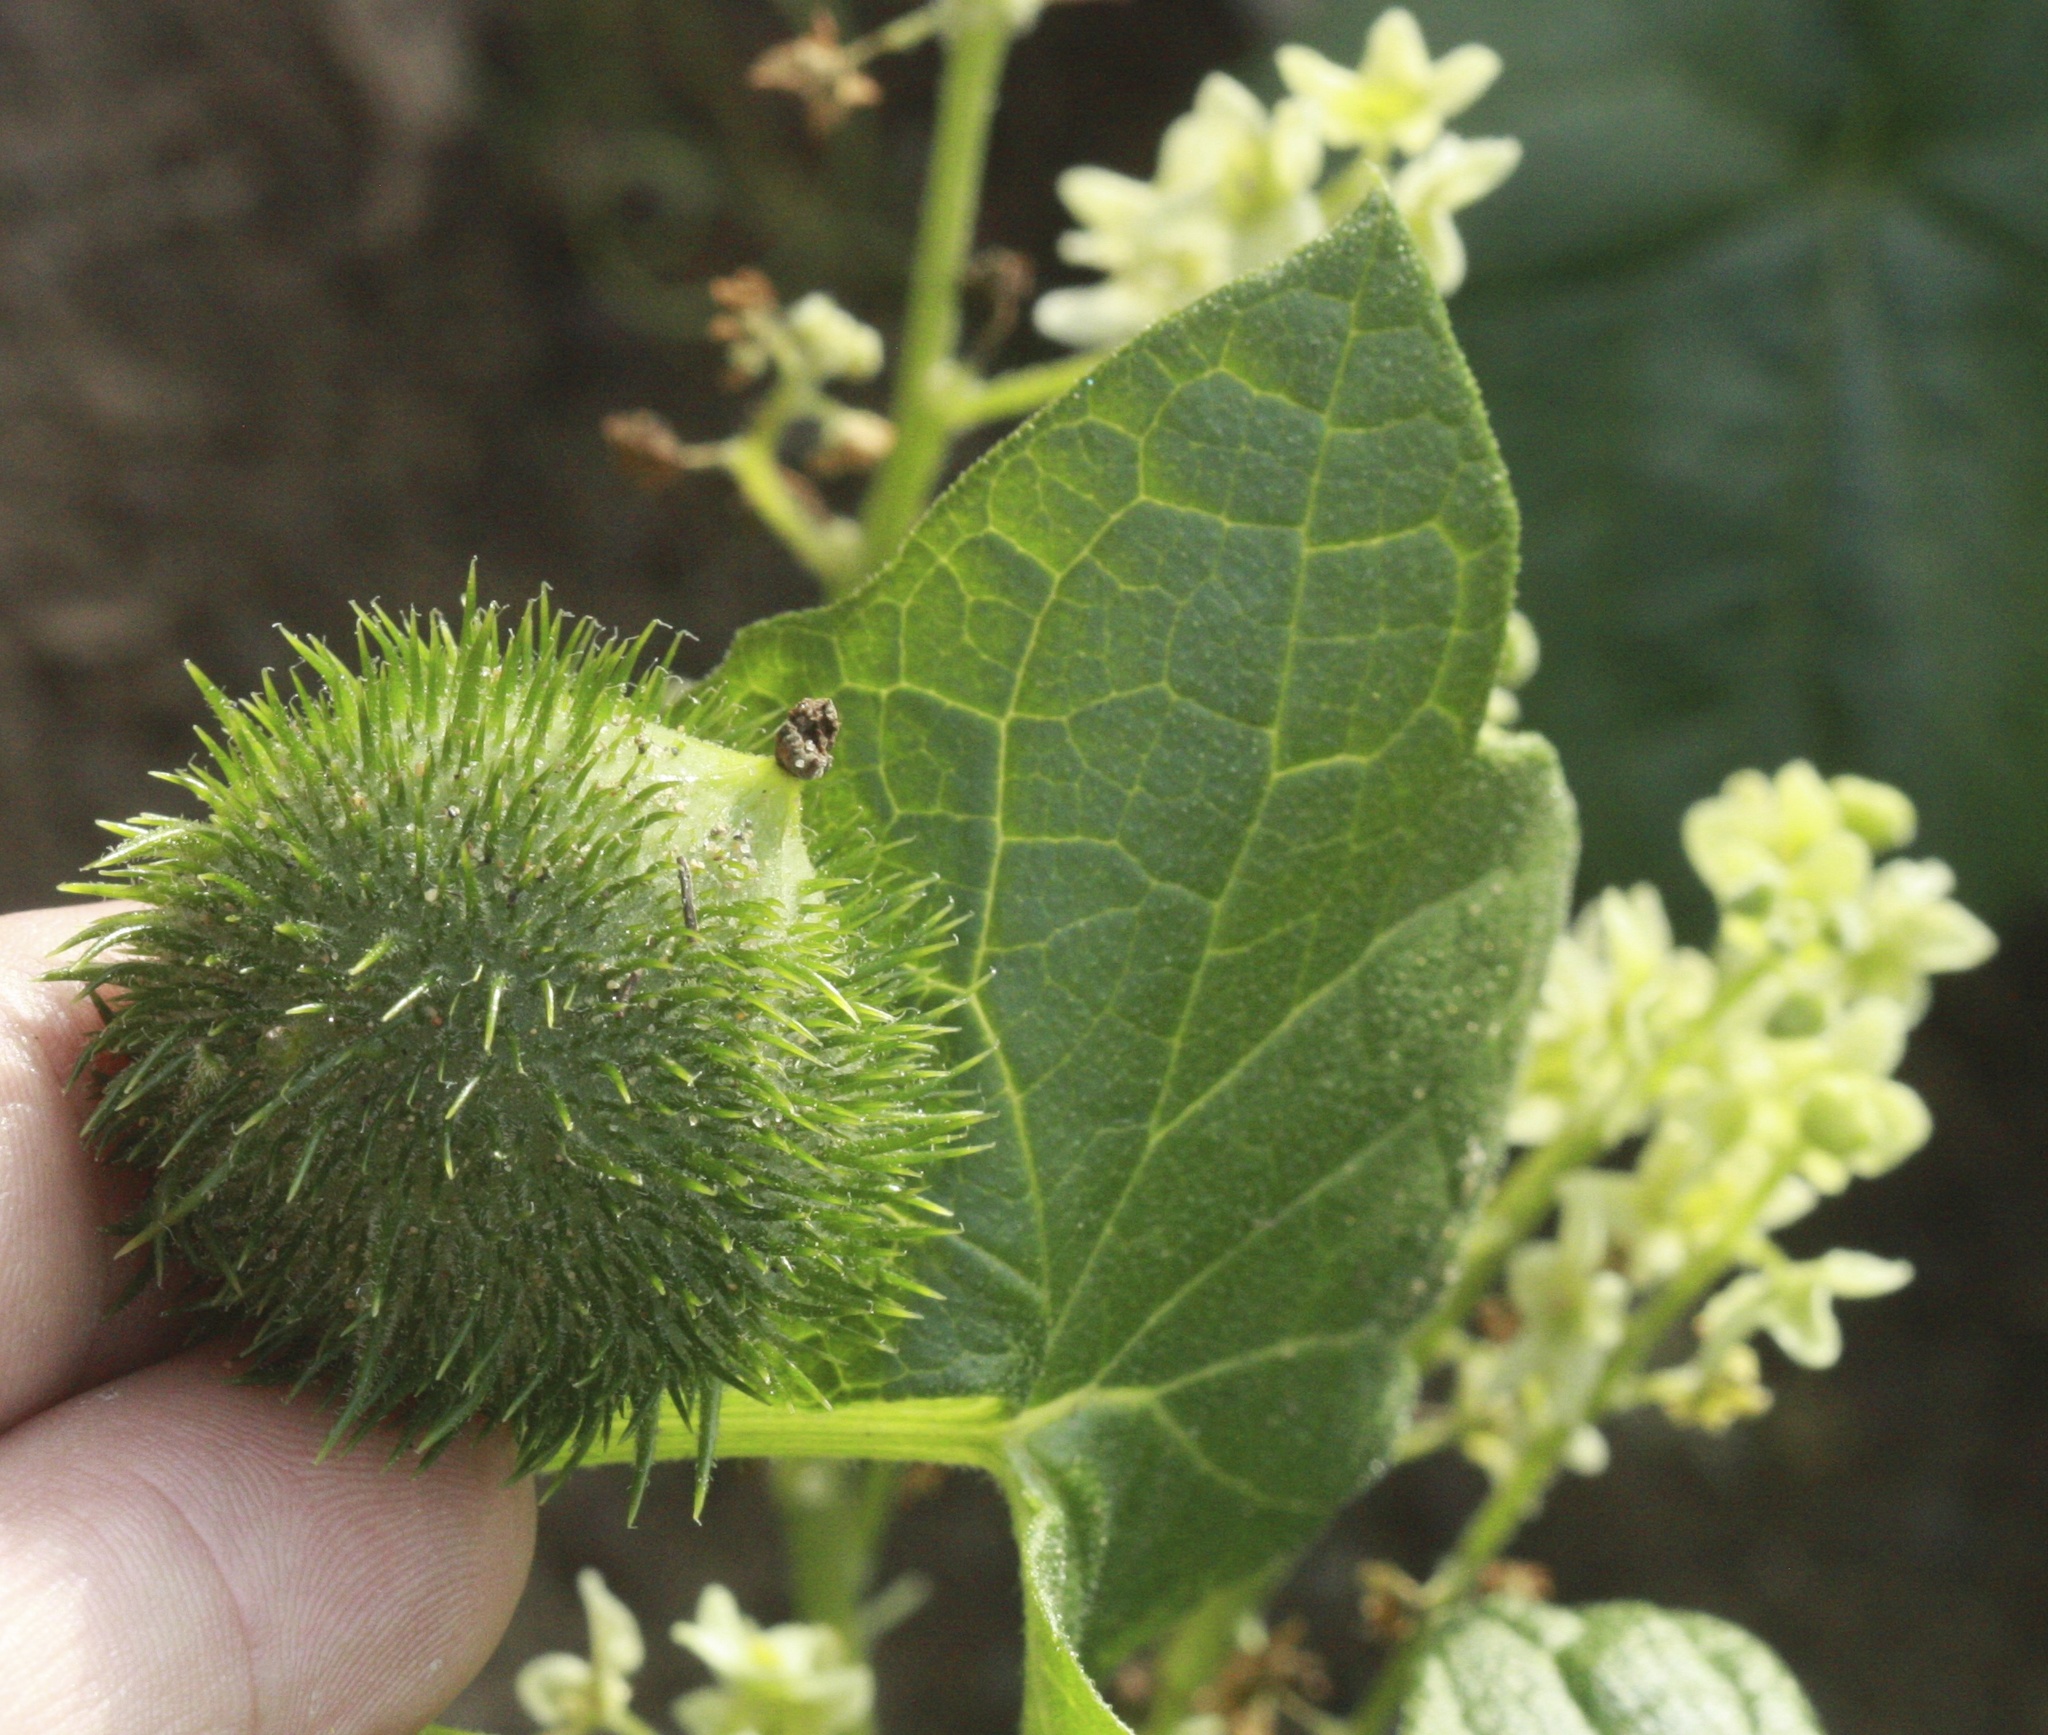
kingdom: Plantae
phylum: Tracheophyta
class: Magnoliopsida
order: Cucurbitales
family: Cucurbitaceae
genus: Marah
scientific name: Marah fabacea
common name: California manroot
